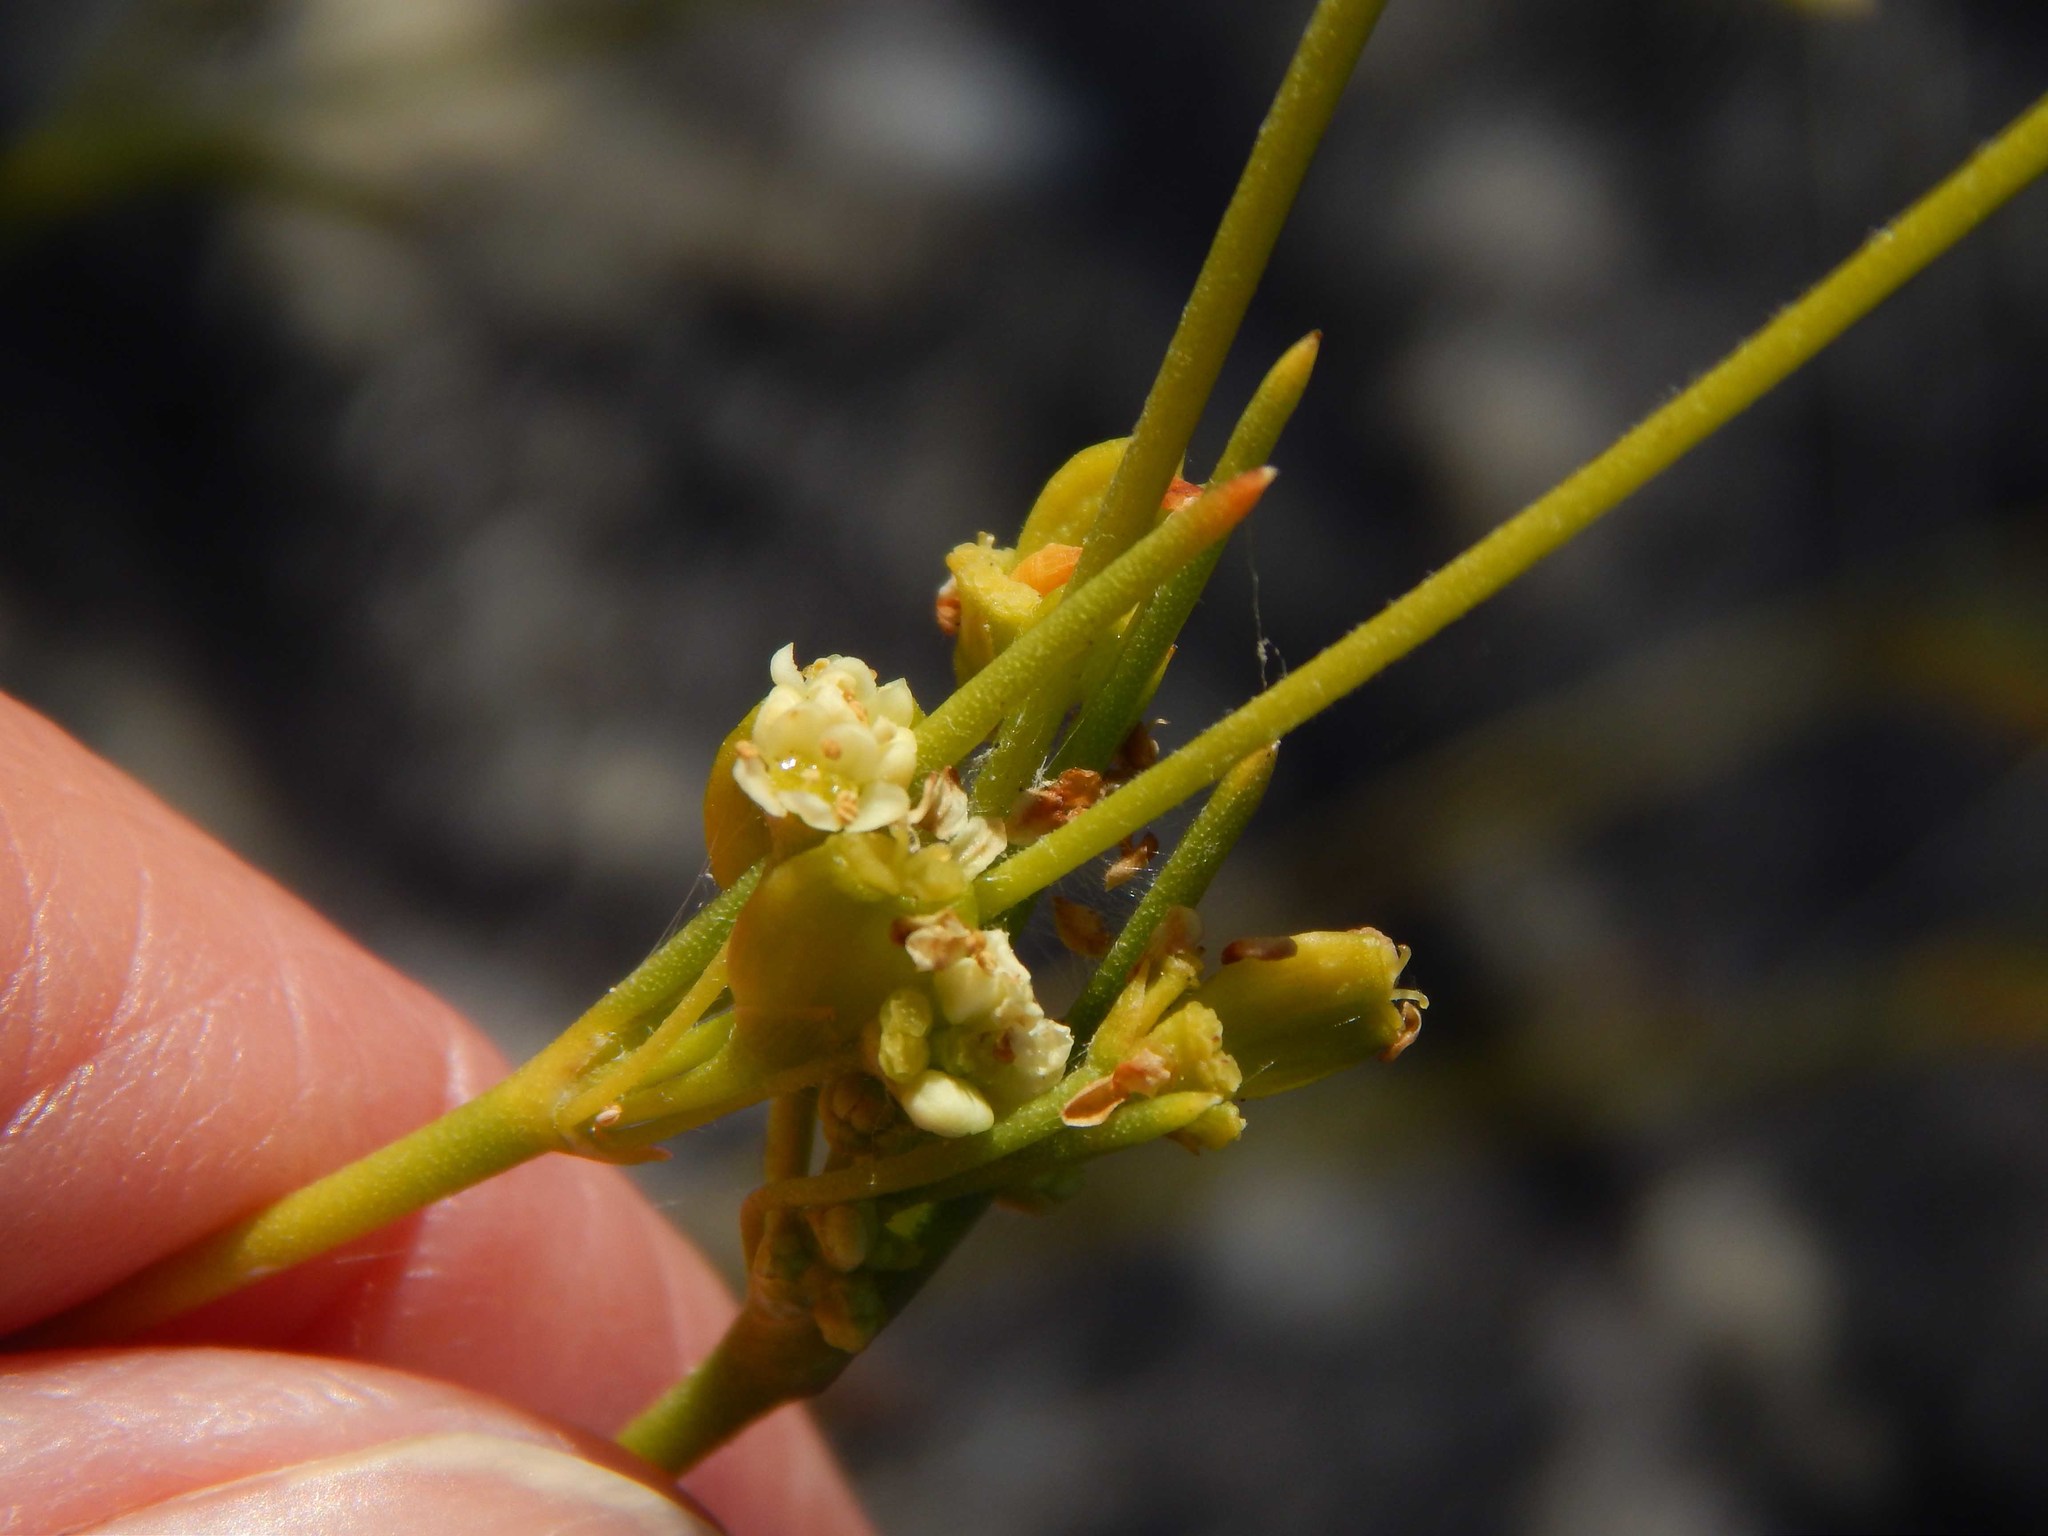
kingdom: Plantae
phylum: Tracheophyta
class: Magnoliopsida
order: Apiales
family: Apiaceae
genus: Centella
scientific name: Centella macrocarpa
